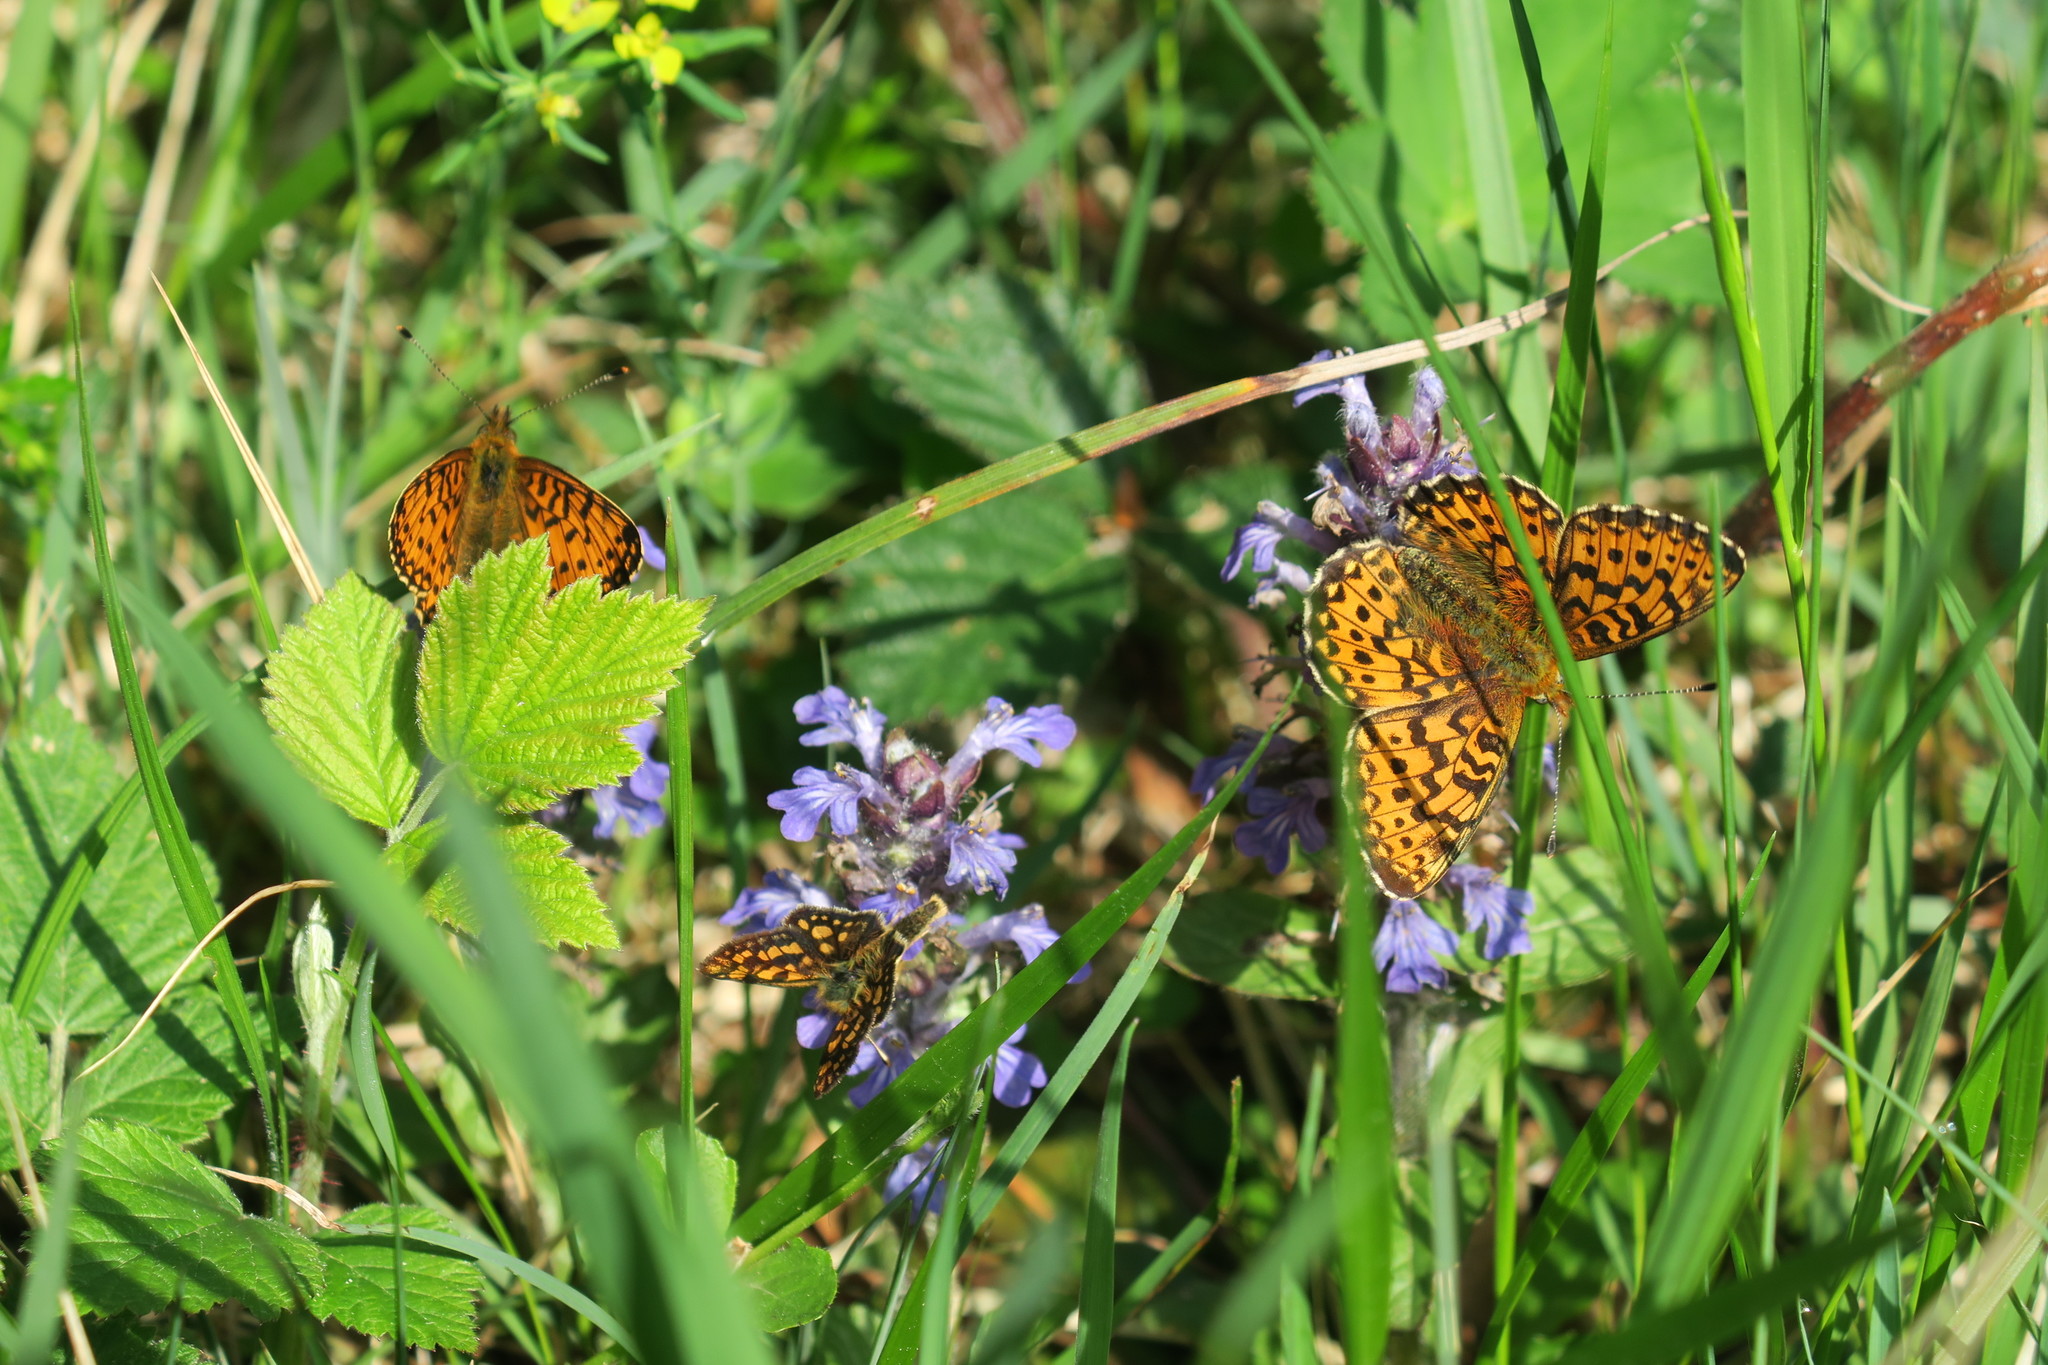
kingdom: Animalia
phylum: Arthropoda
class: Insecta
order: Lepidoptera
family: Nymphalidae
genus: Clossiana
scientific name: Clossiana euphrosyne
